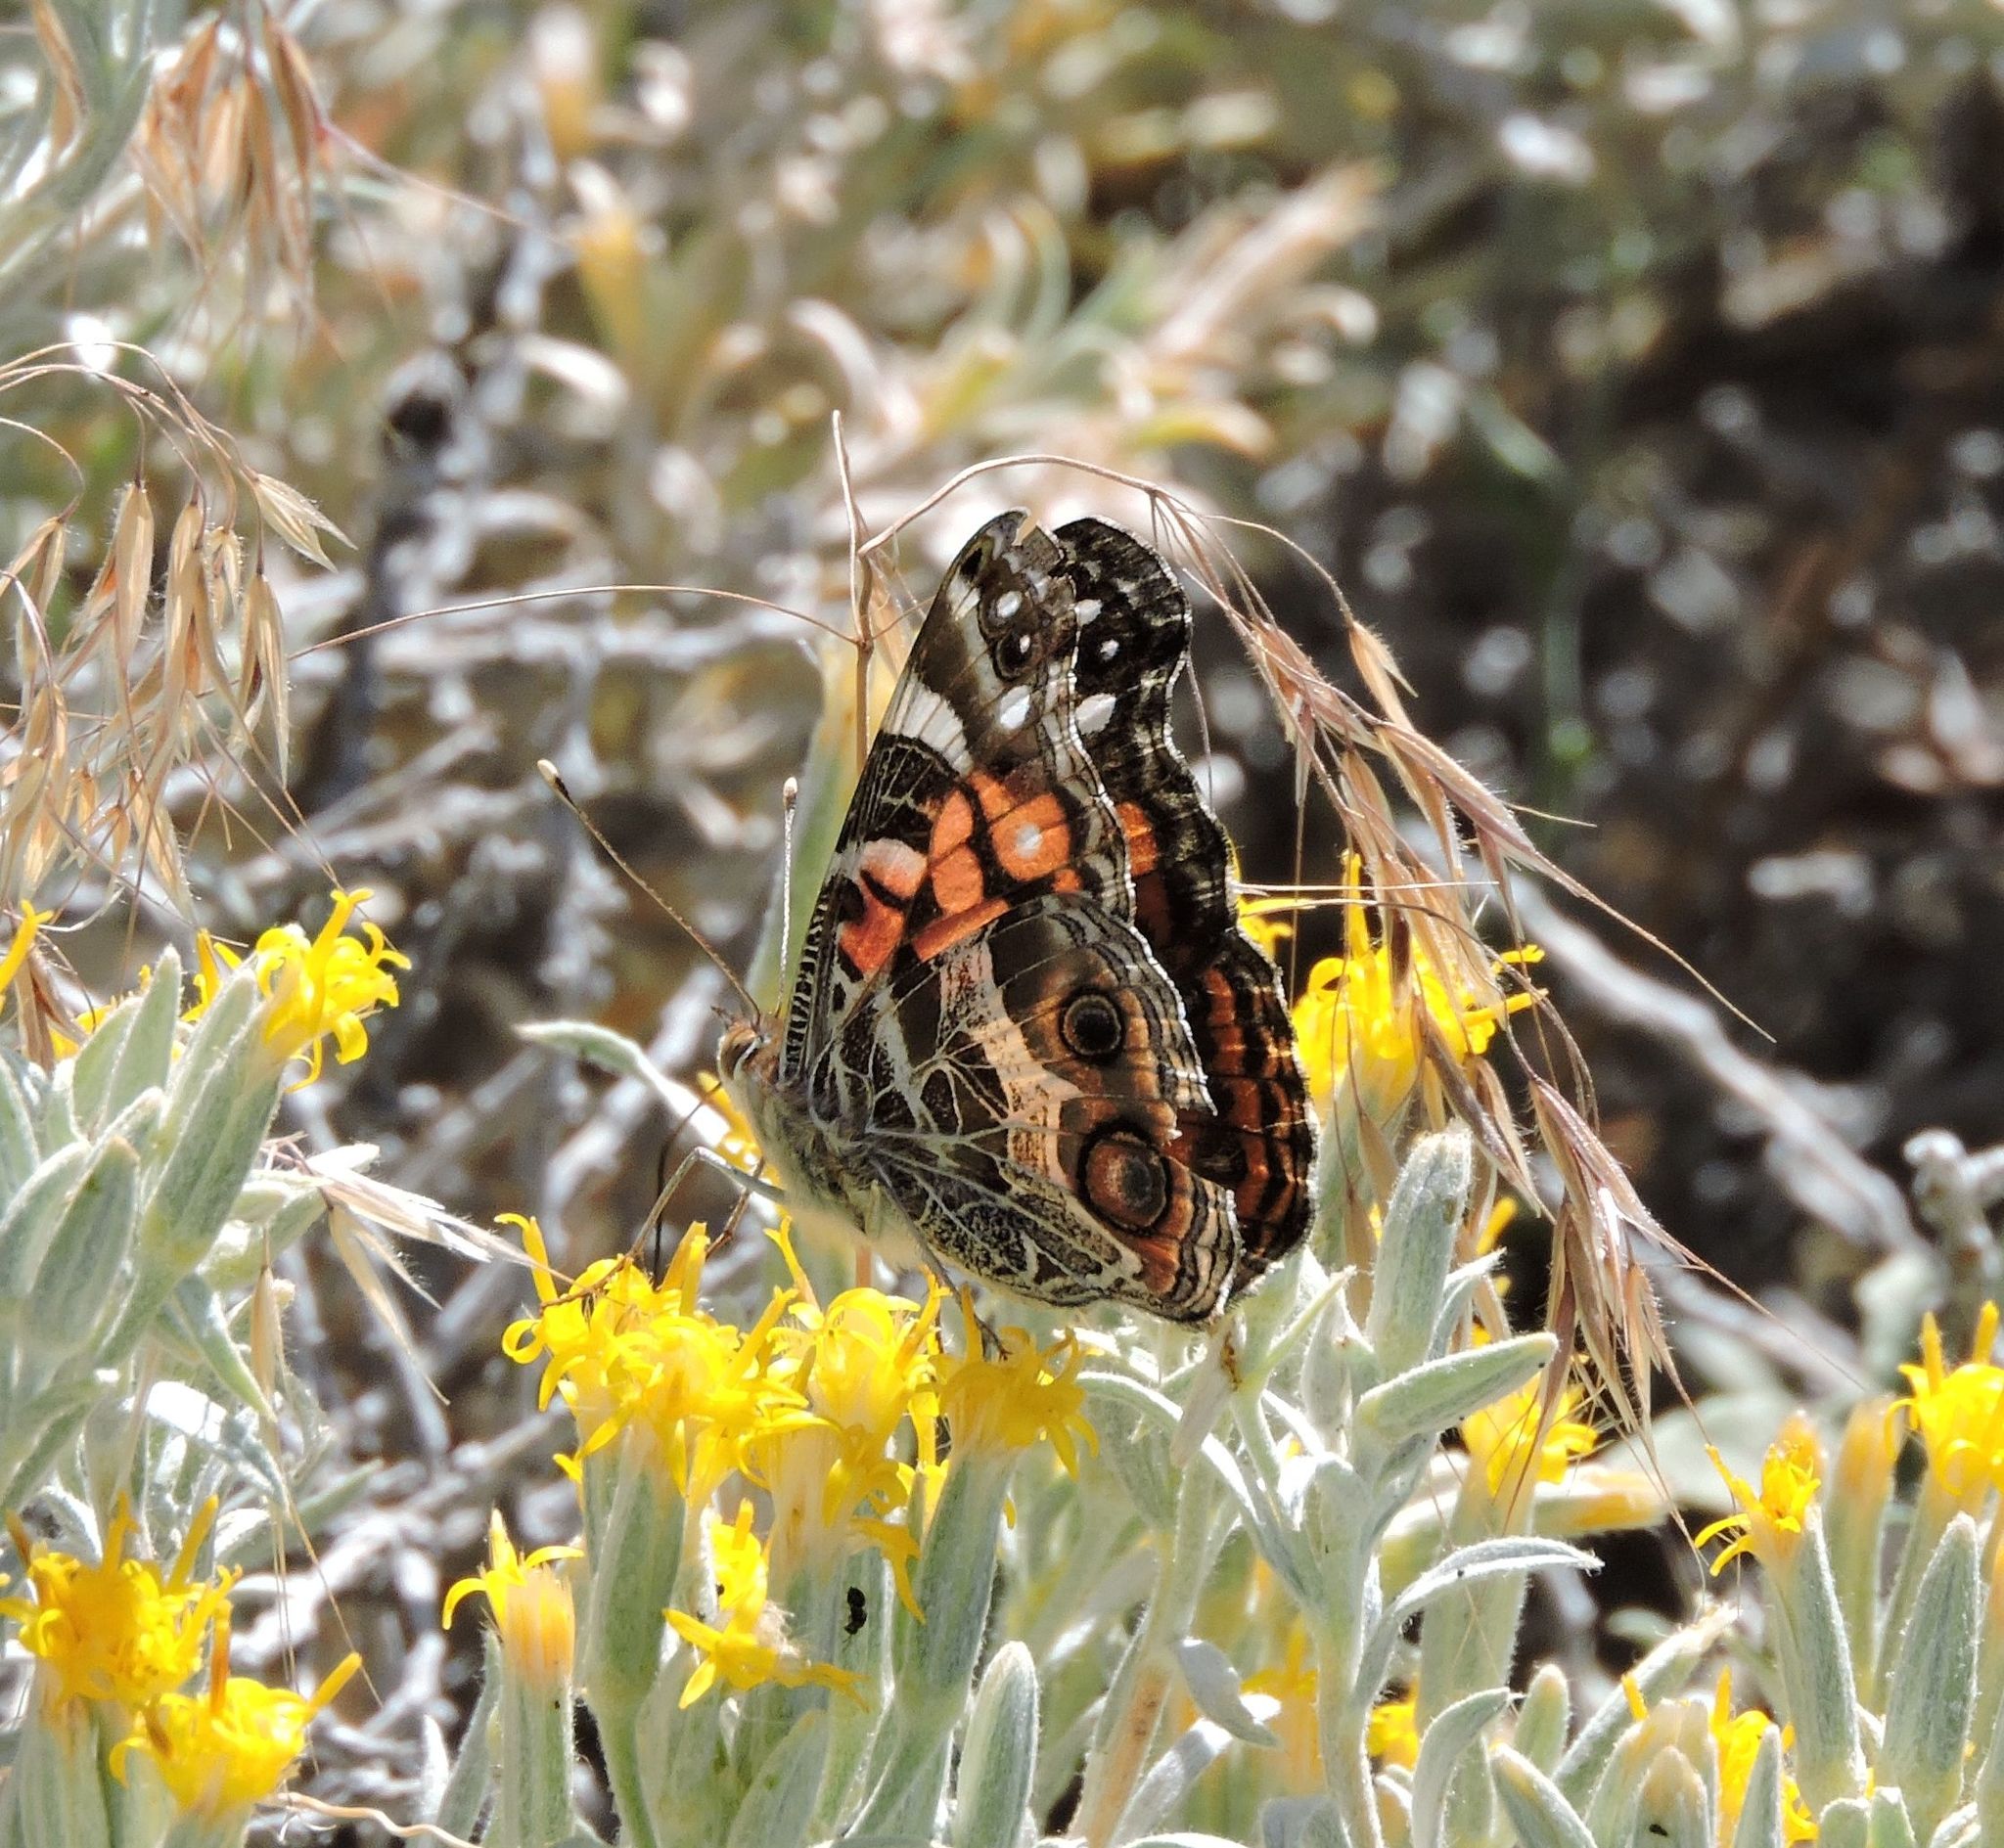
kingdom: Animalia
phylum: Arthropoda
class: Insecta
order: Lepidoptera
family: Nymphalidae
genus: Vanessa
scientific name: Vanessa virginiensis
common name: American lady
